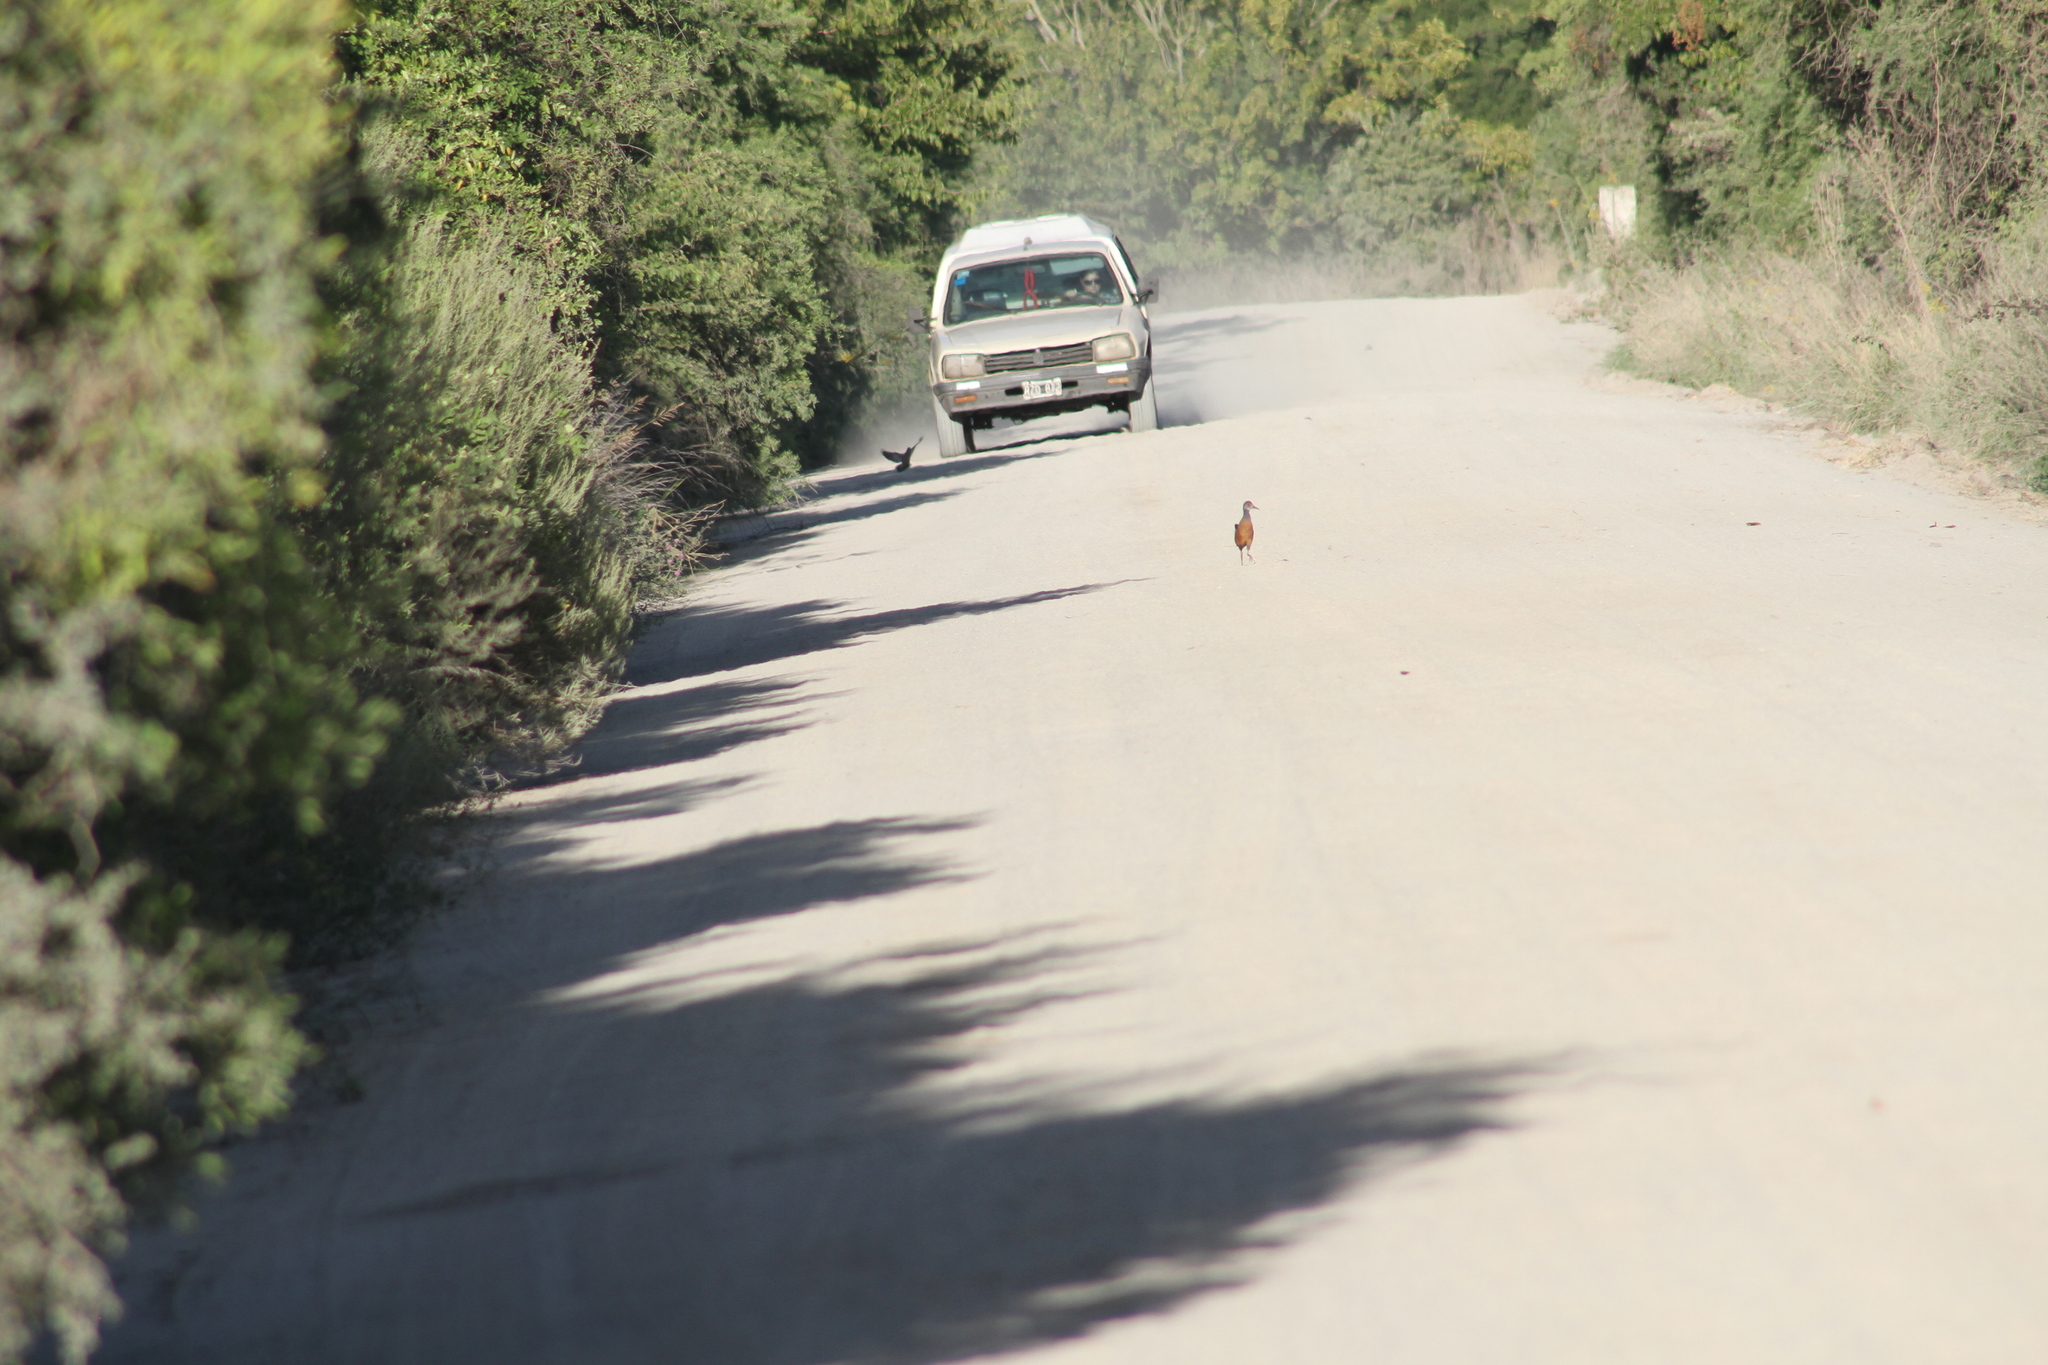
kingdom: Animalia
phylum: Chordata
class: Aves
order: Gruiformes
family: Rallidae
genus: Aramides
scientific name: Aramides cajanea
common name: Gray-necked wood-rail
